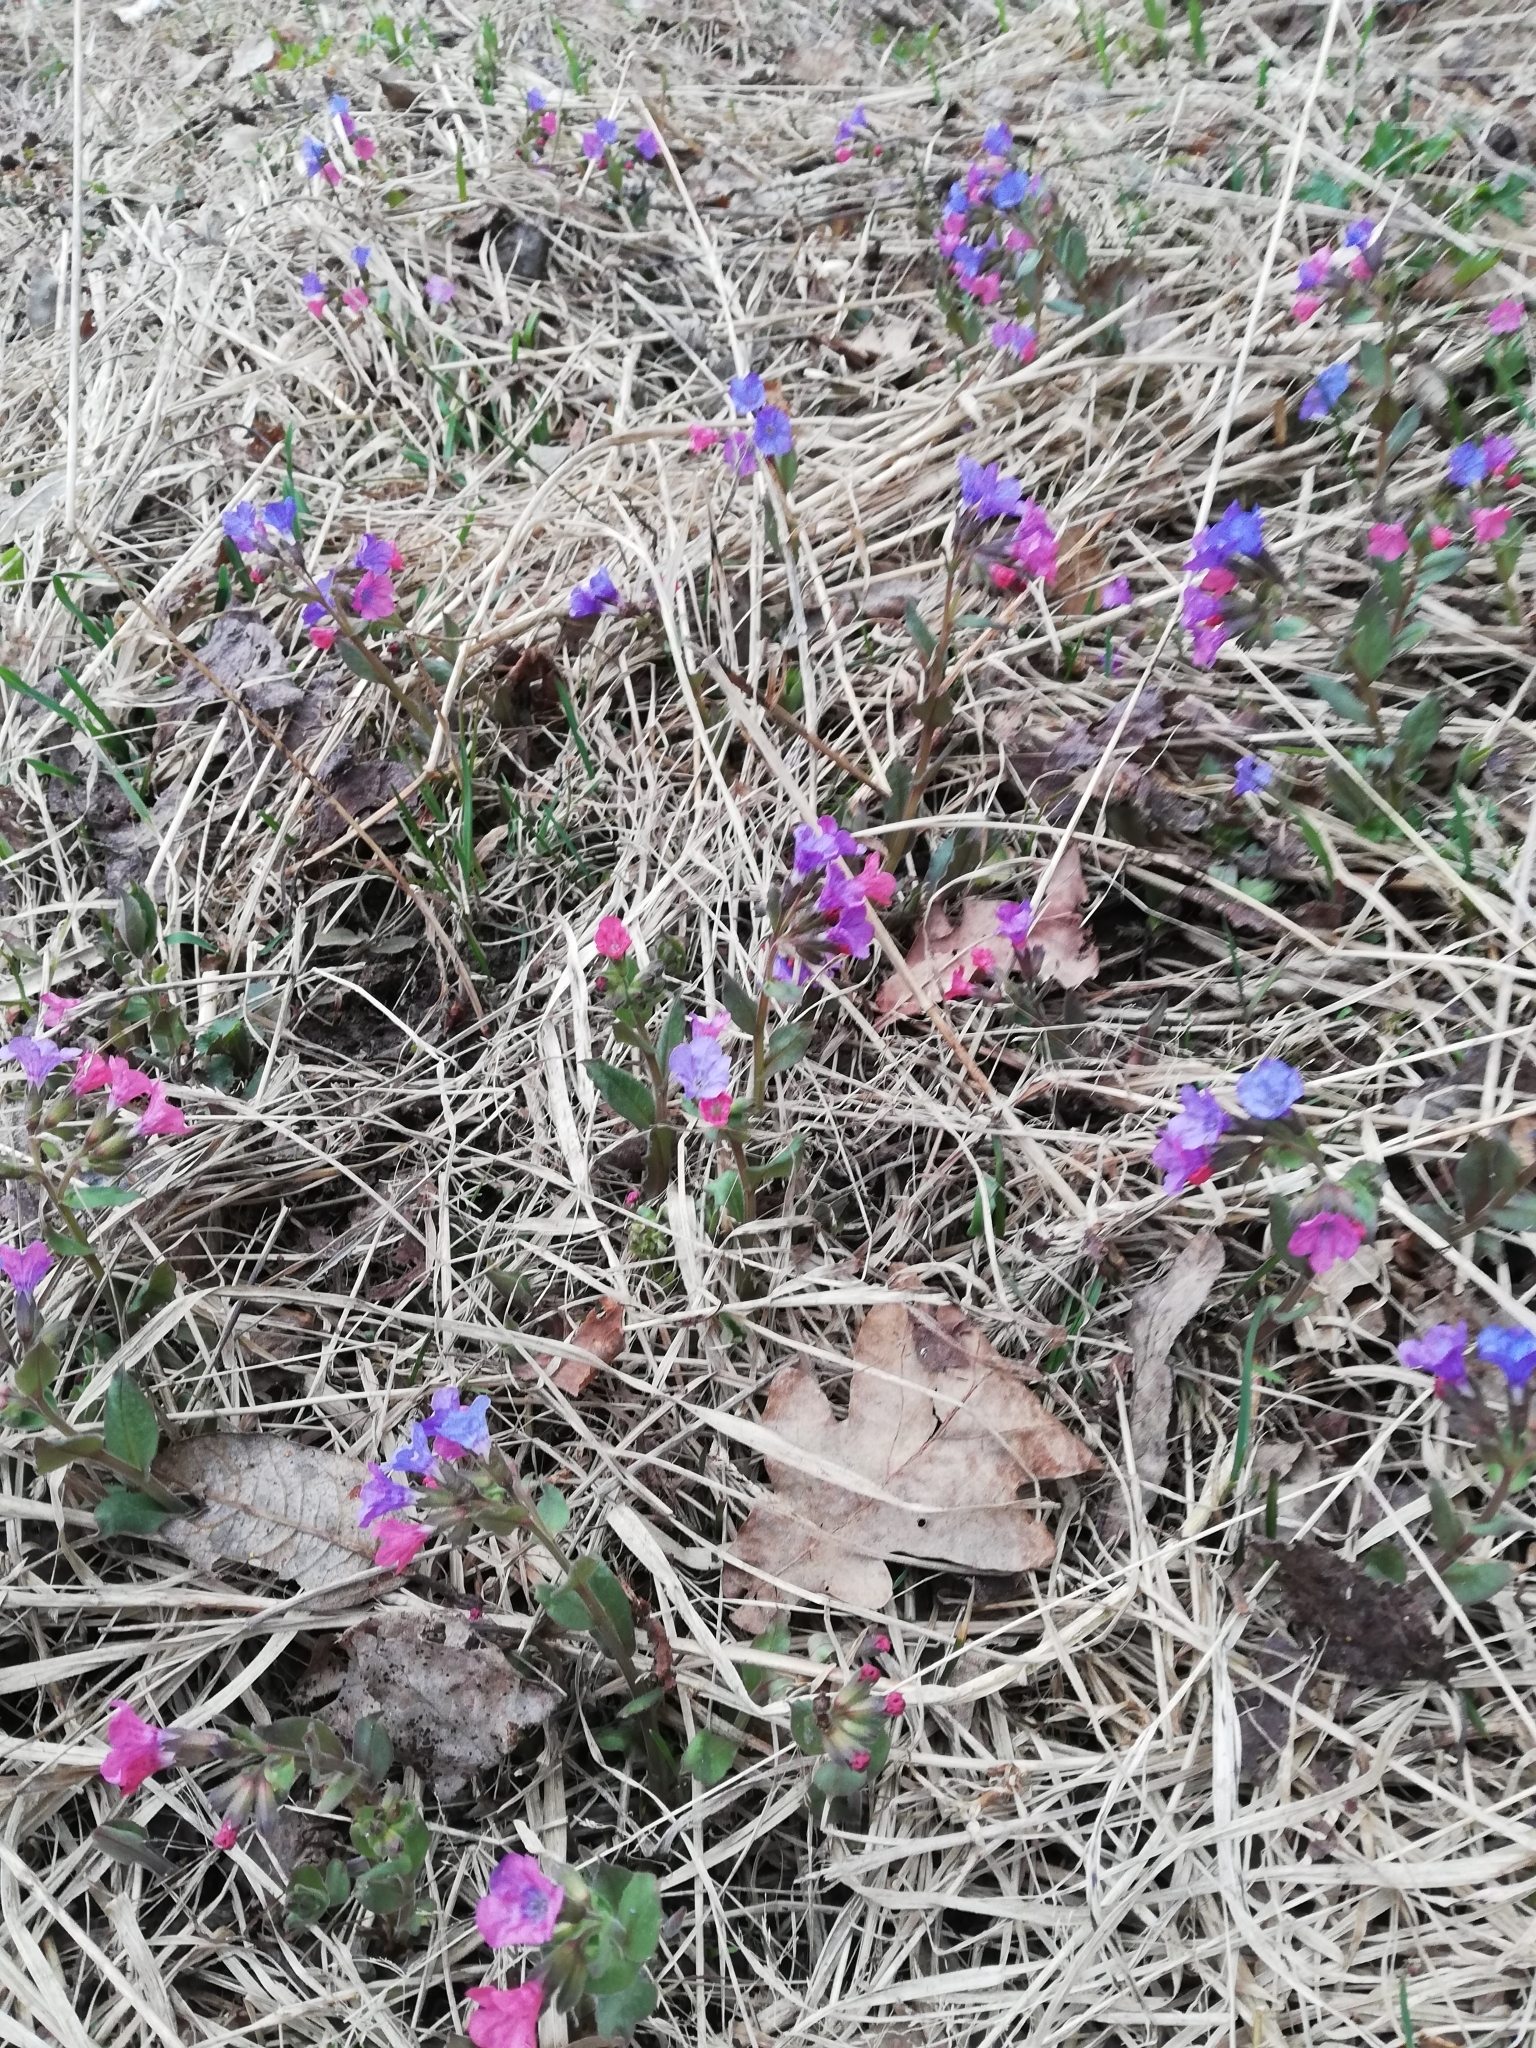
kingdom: Plantae
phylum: Tracheophyta
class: Magnoliopsida
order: Boraginales
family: Boraginaceae
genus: Pulmonaria
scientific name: Pulmonaria obscura
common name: Suffolk lungwort
